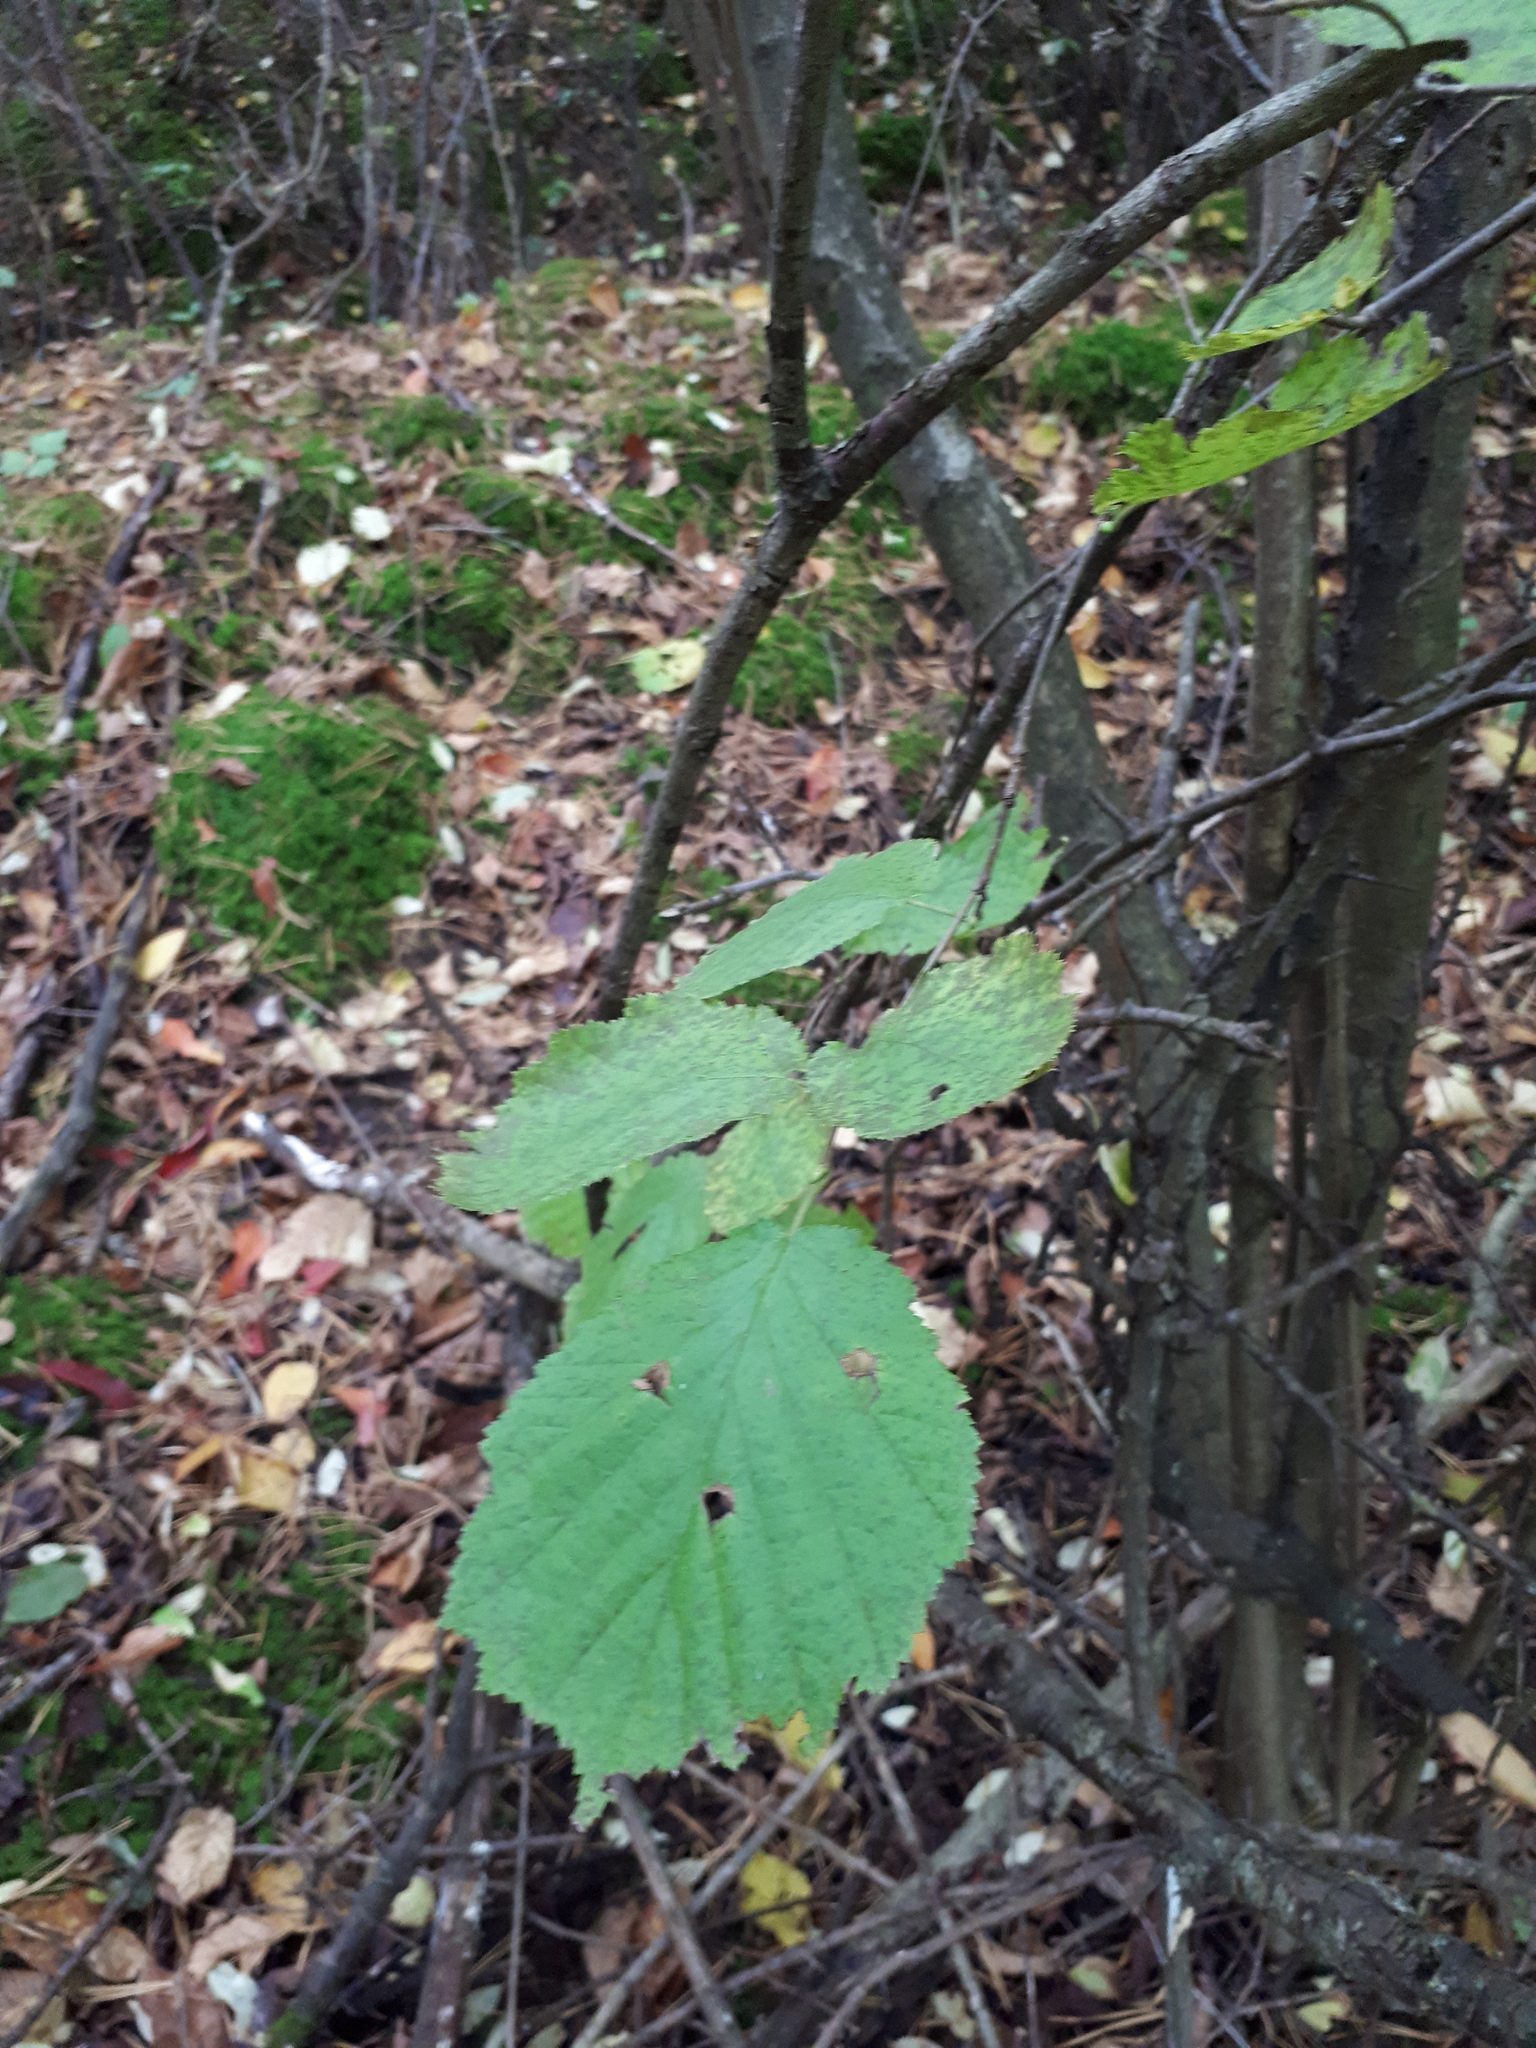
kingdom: Plantae
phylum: Tracheophyta
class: Magnoliopsida
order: Fagales
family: Betulaceae
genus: Corylus
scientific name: Corylus avellana
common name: European hazel
